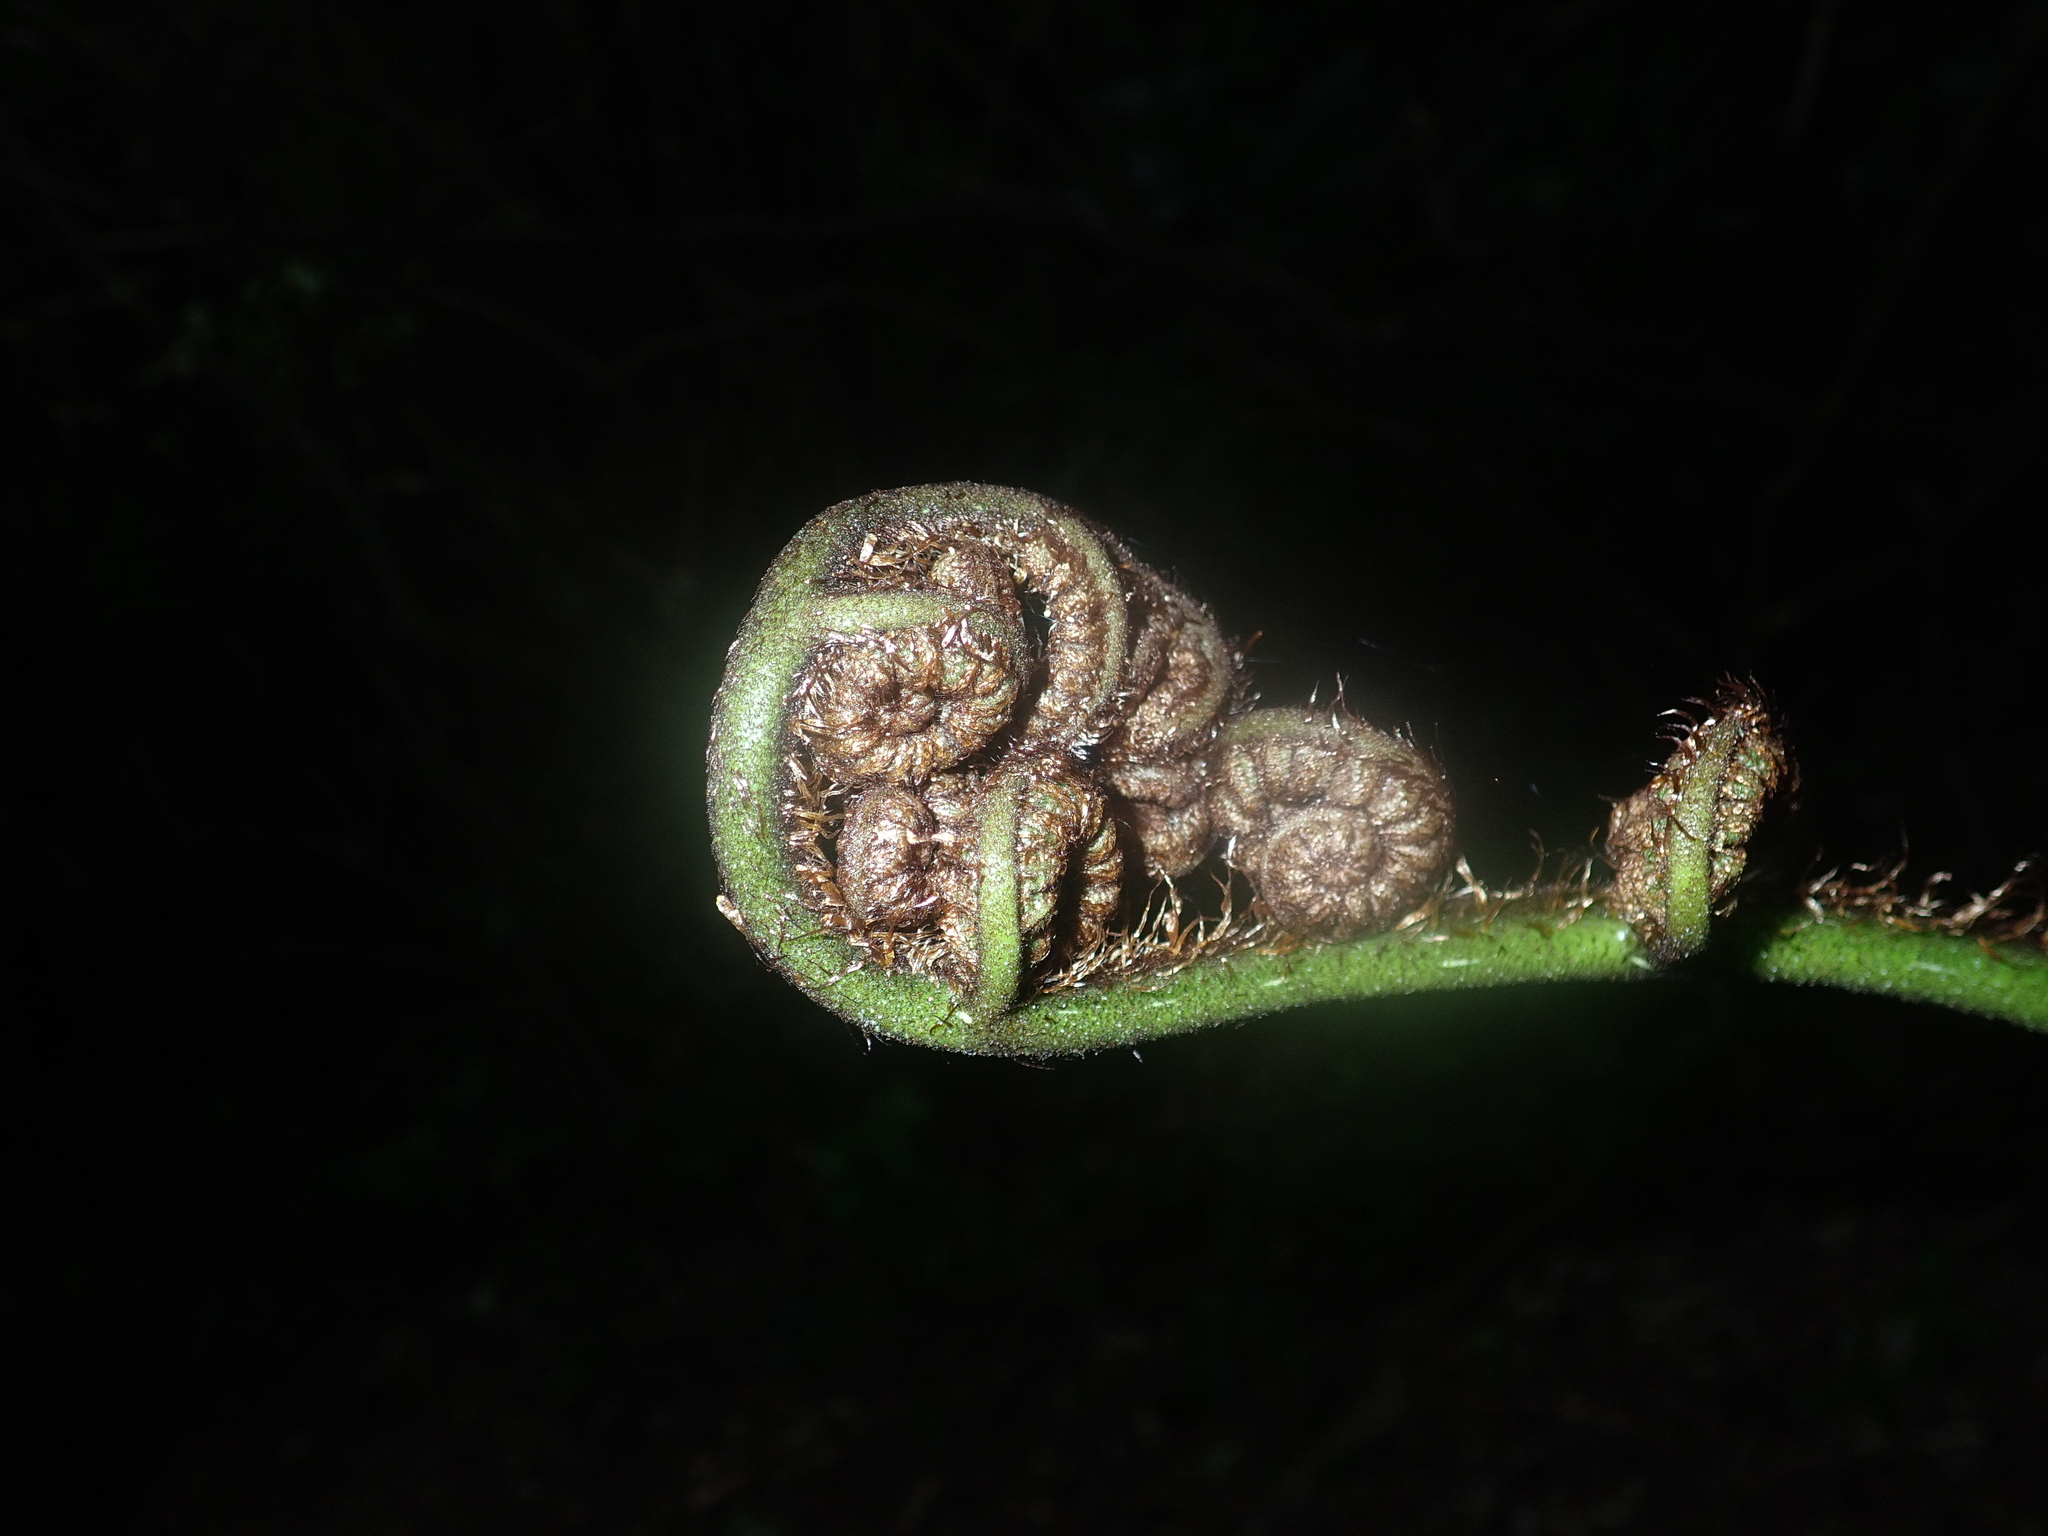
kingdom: Plantae
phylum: Tracheophyta
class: Polypodiopsida
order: Cyatheales
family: Cyatheaceae
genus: Sphaeropteris
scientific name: Sphaeropteris medullaris
